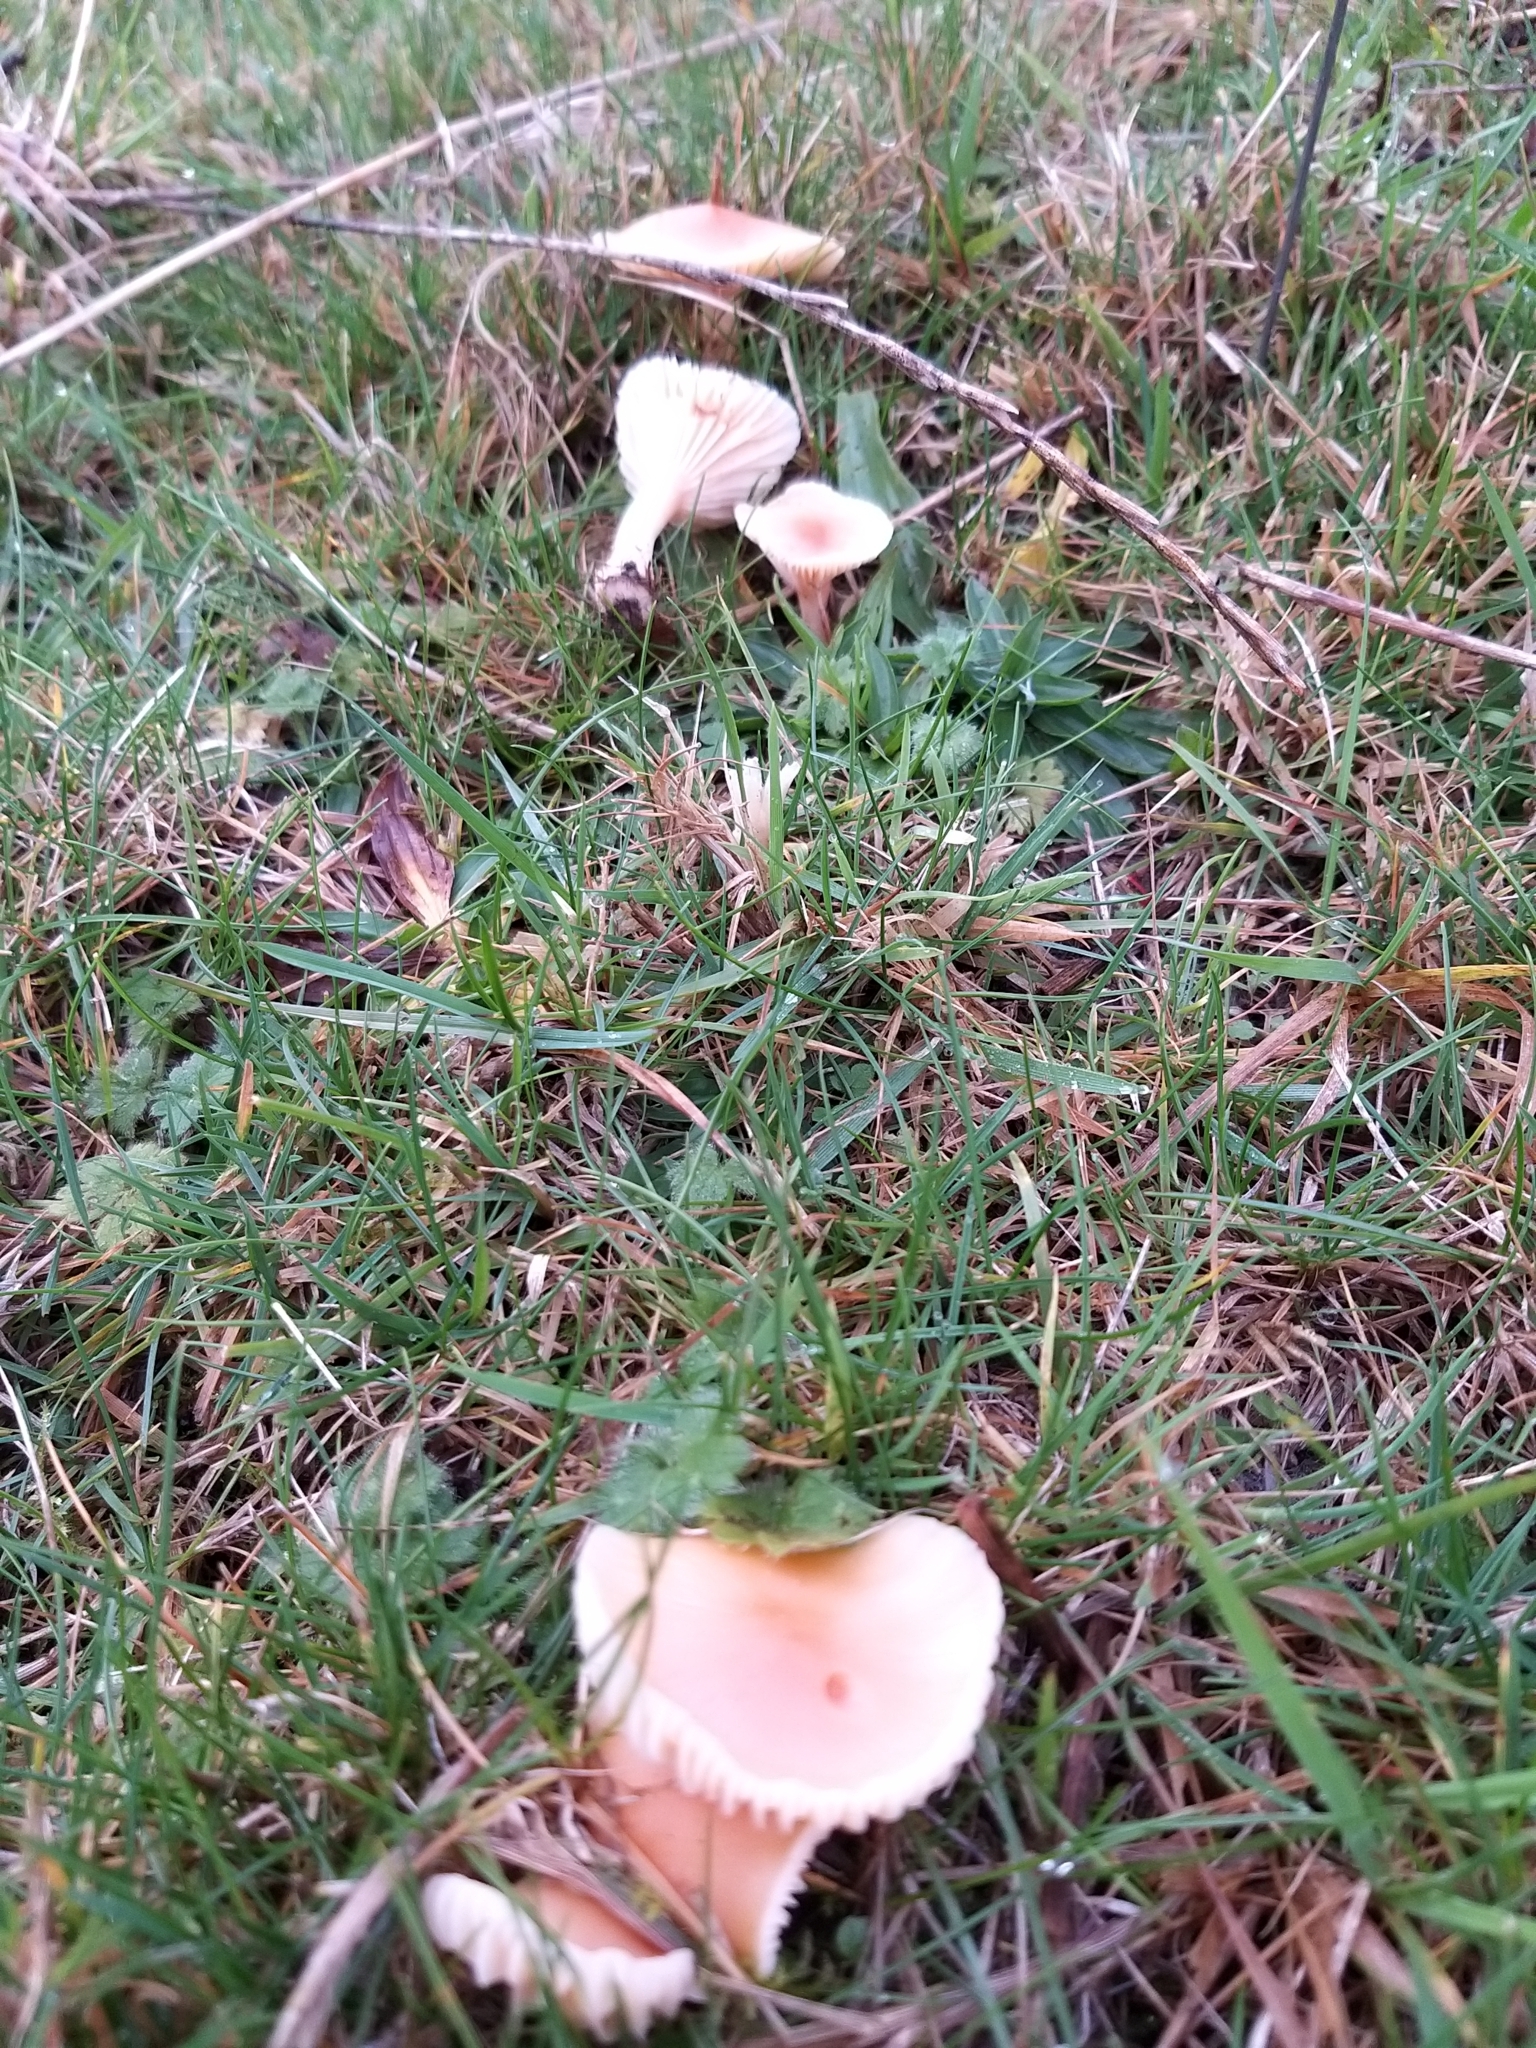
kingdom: Fungi
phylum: Basidiomycota
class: Agaricomycetes
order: Agaricales
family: Hygrophoraceae
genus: Cuphophyllus
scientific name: Cuphophyllus pratensis
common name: Meadow waxcap
